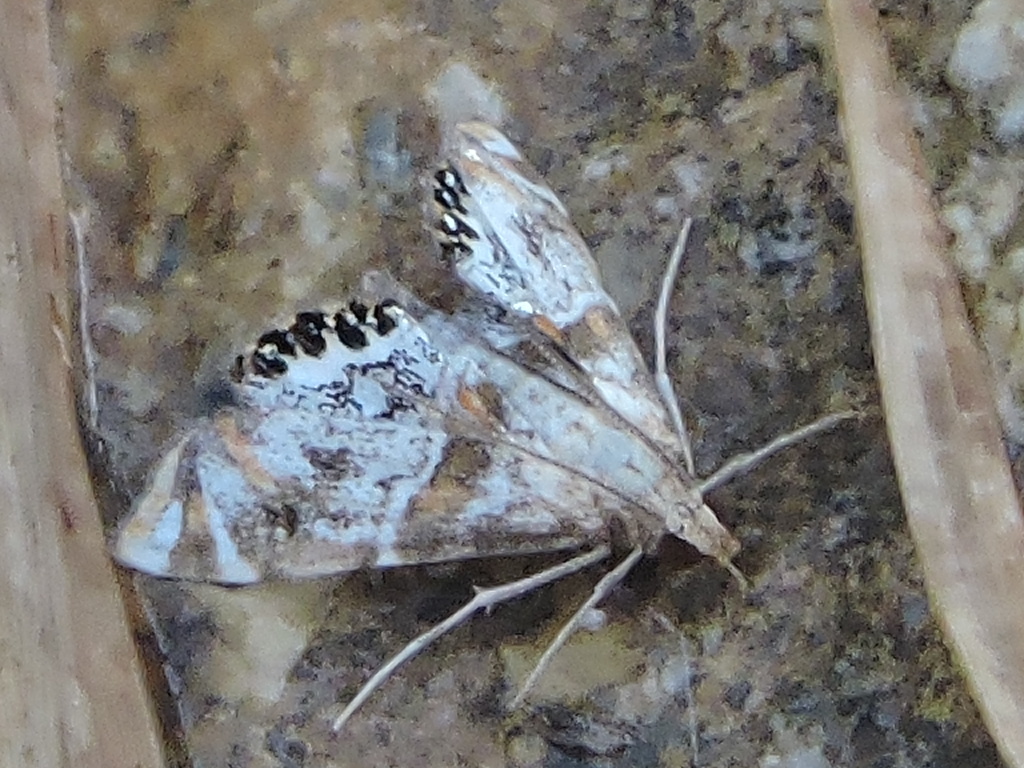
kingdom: Animalia
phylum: Arthropoda
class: Insecta
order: Lepidoptera
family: Crambidae
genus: Petrophila
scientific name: Petrophila jaliscalis
